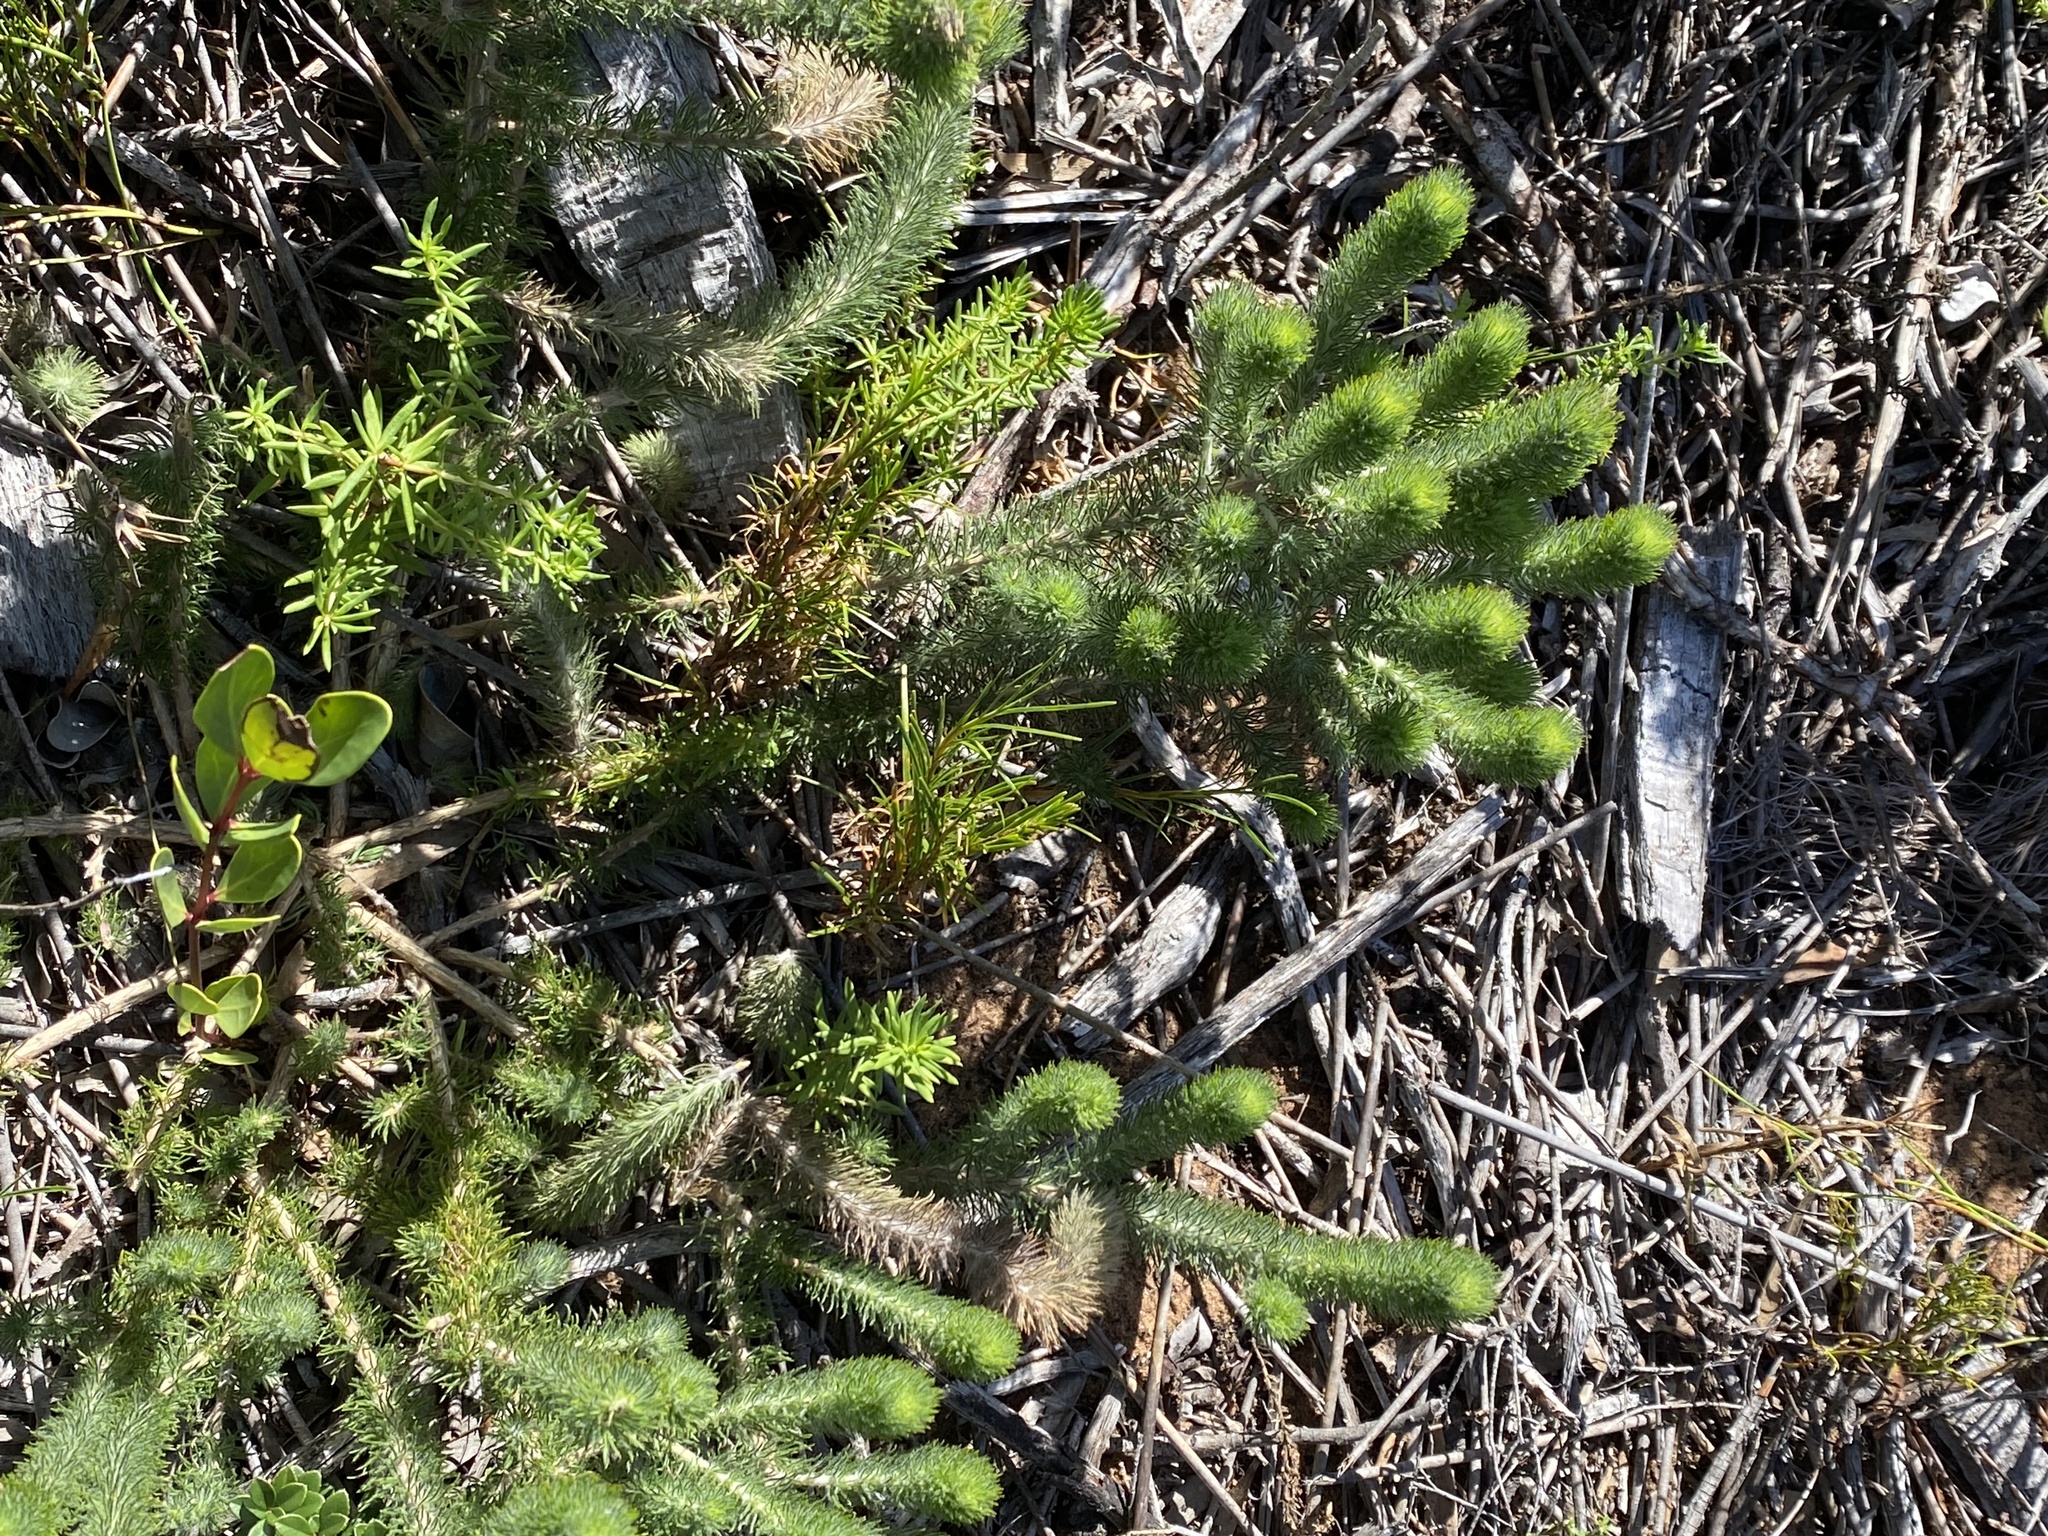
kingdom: Plantae
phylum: Tracheophyta
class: Magnoliopsida
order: Fabales
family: Fabaceae
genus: Aspalathus
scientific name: Aspalathus alopecurus
